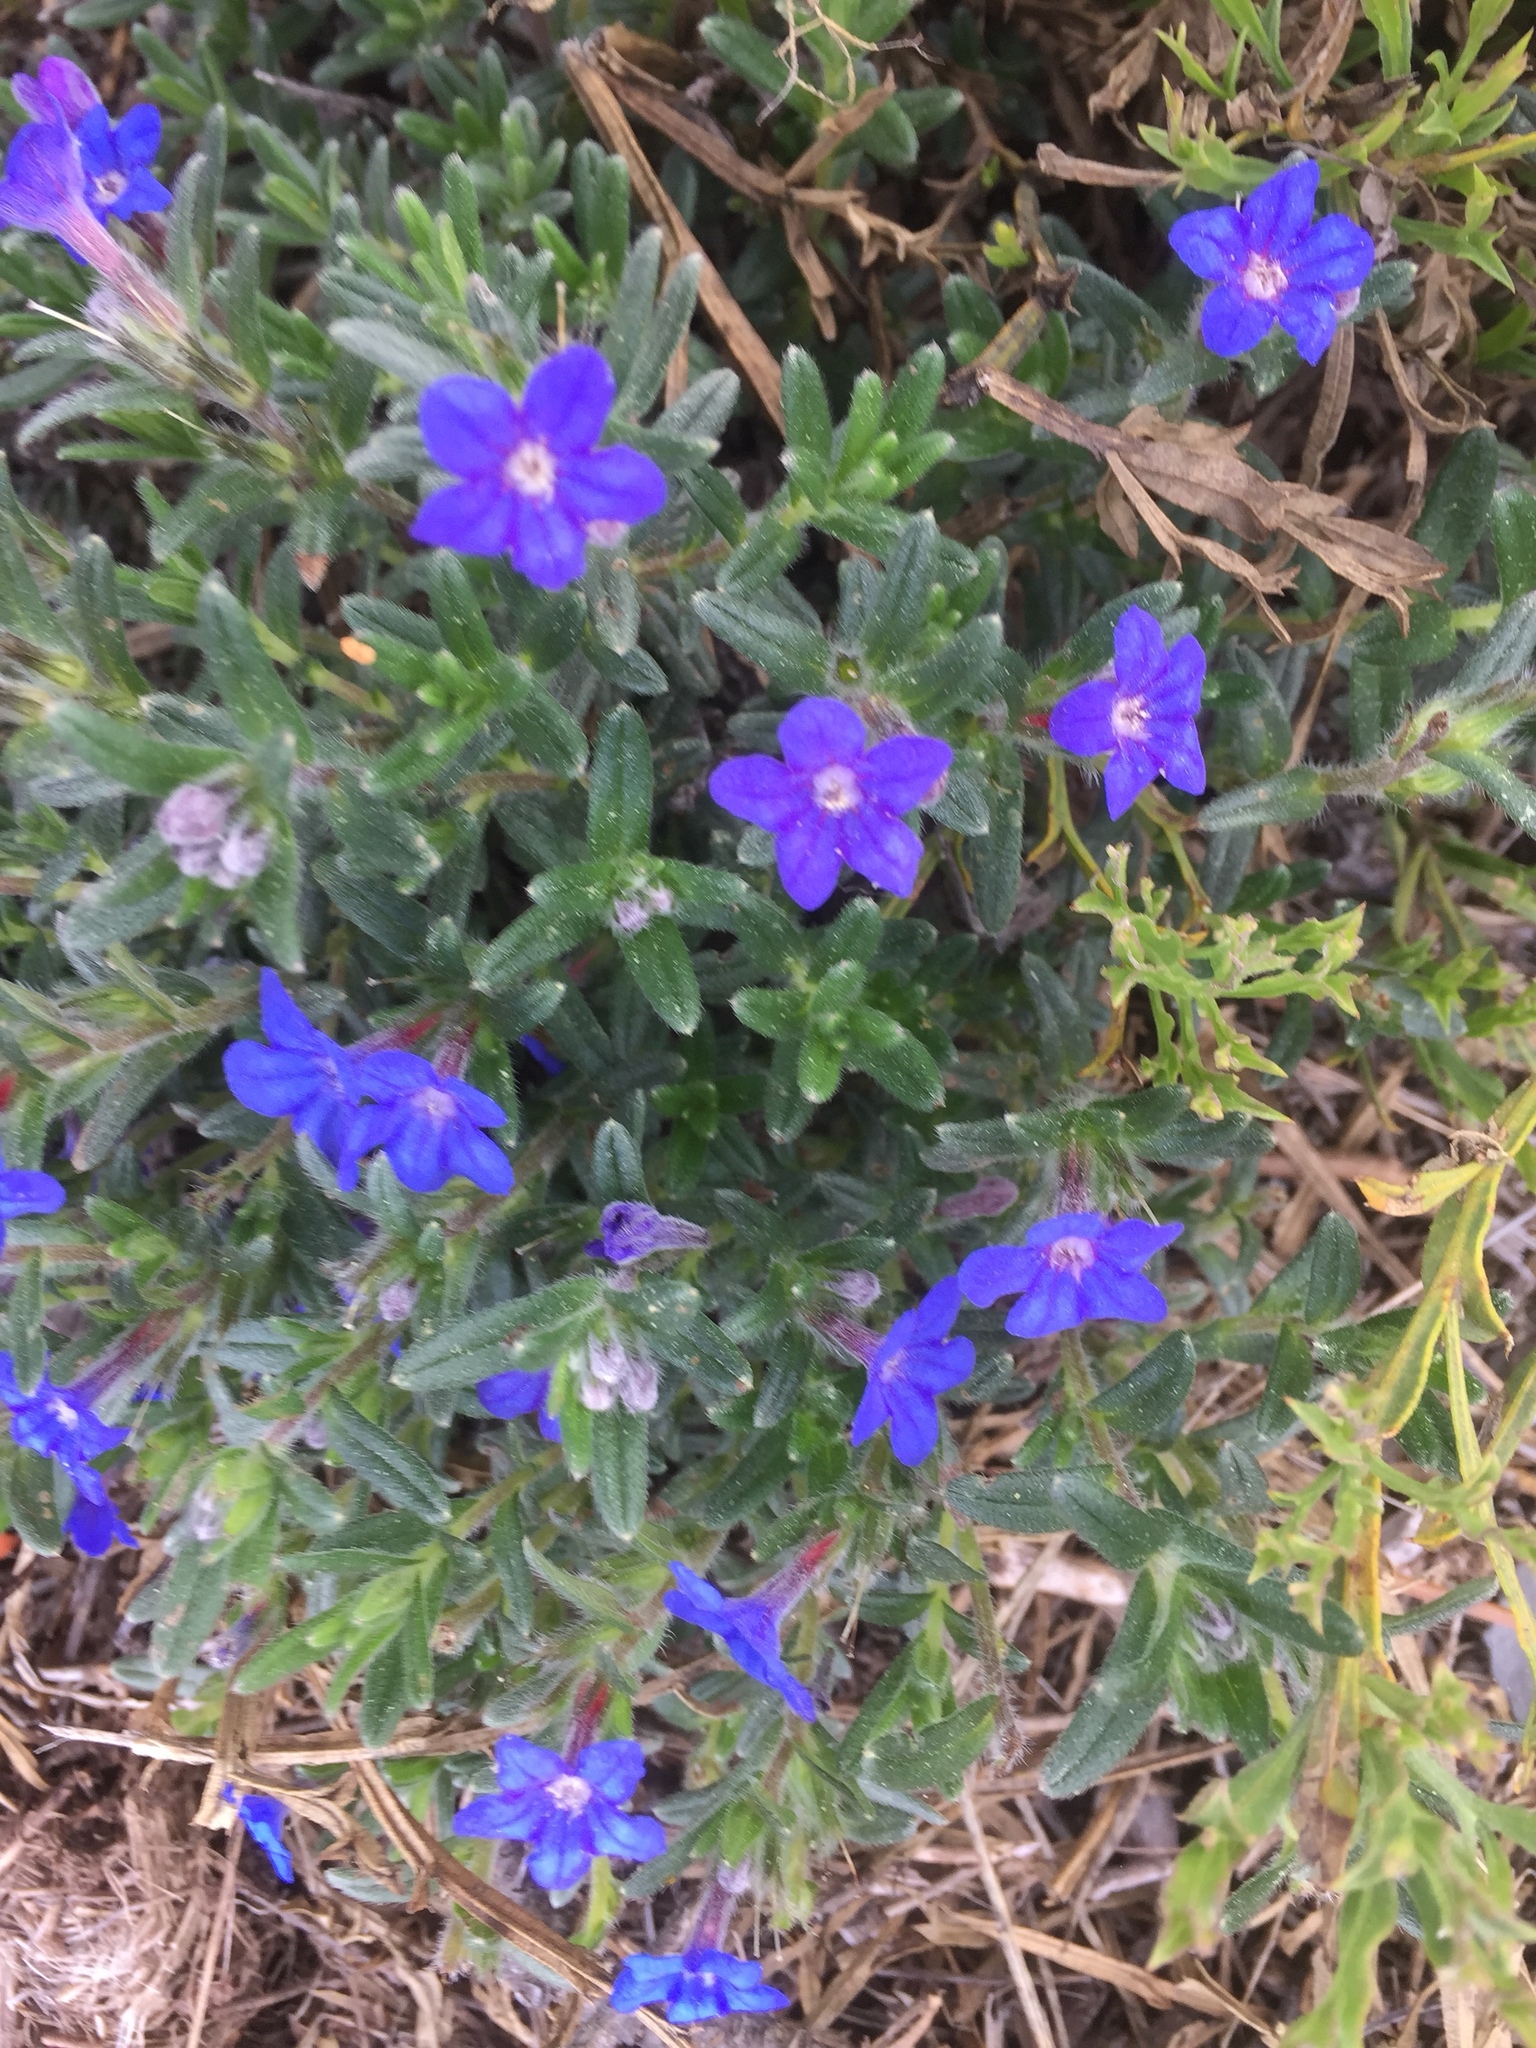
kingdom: Plantae
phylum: Tracheophyta
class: Magnoliopsida
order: Boraginales
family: Boraginaceae
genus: Glandora
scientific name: Glandora prostrata
